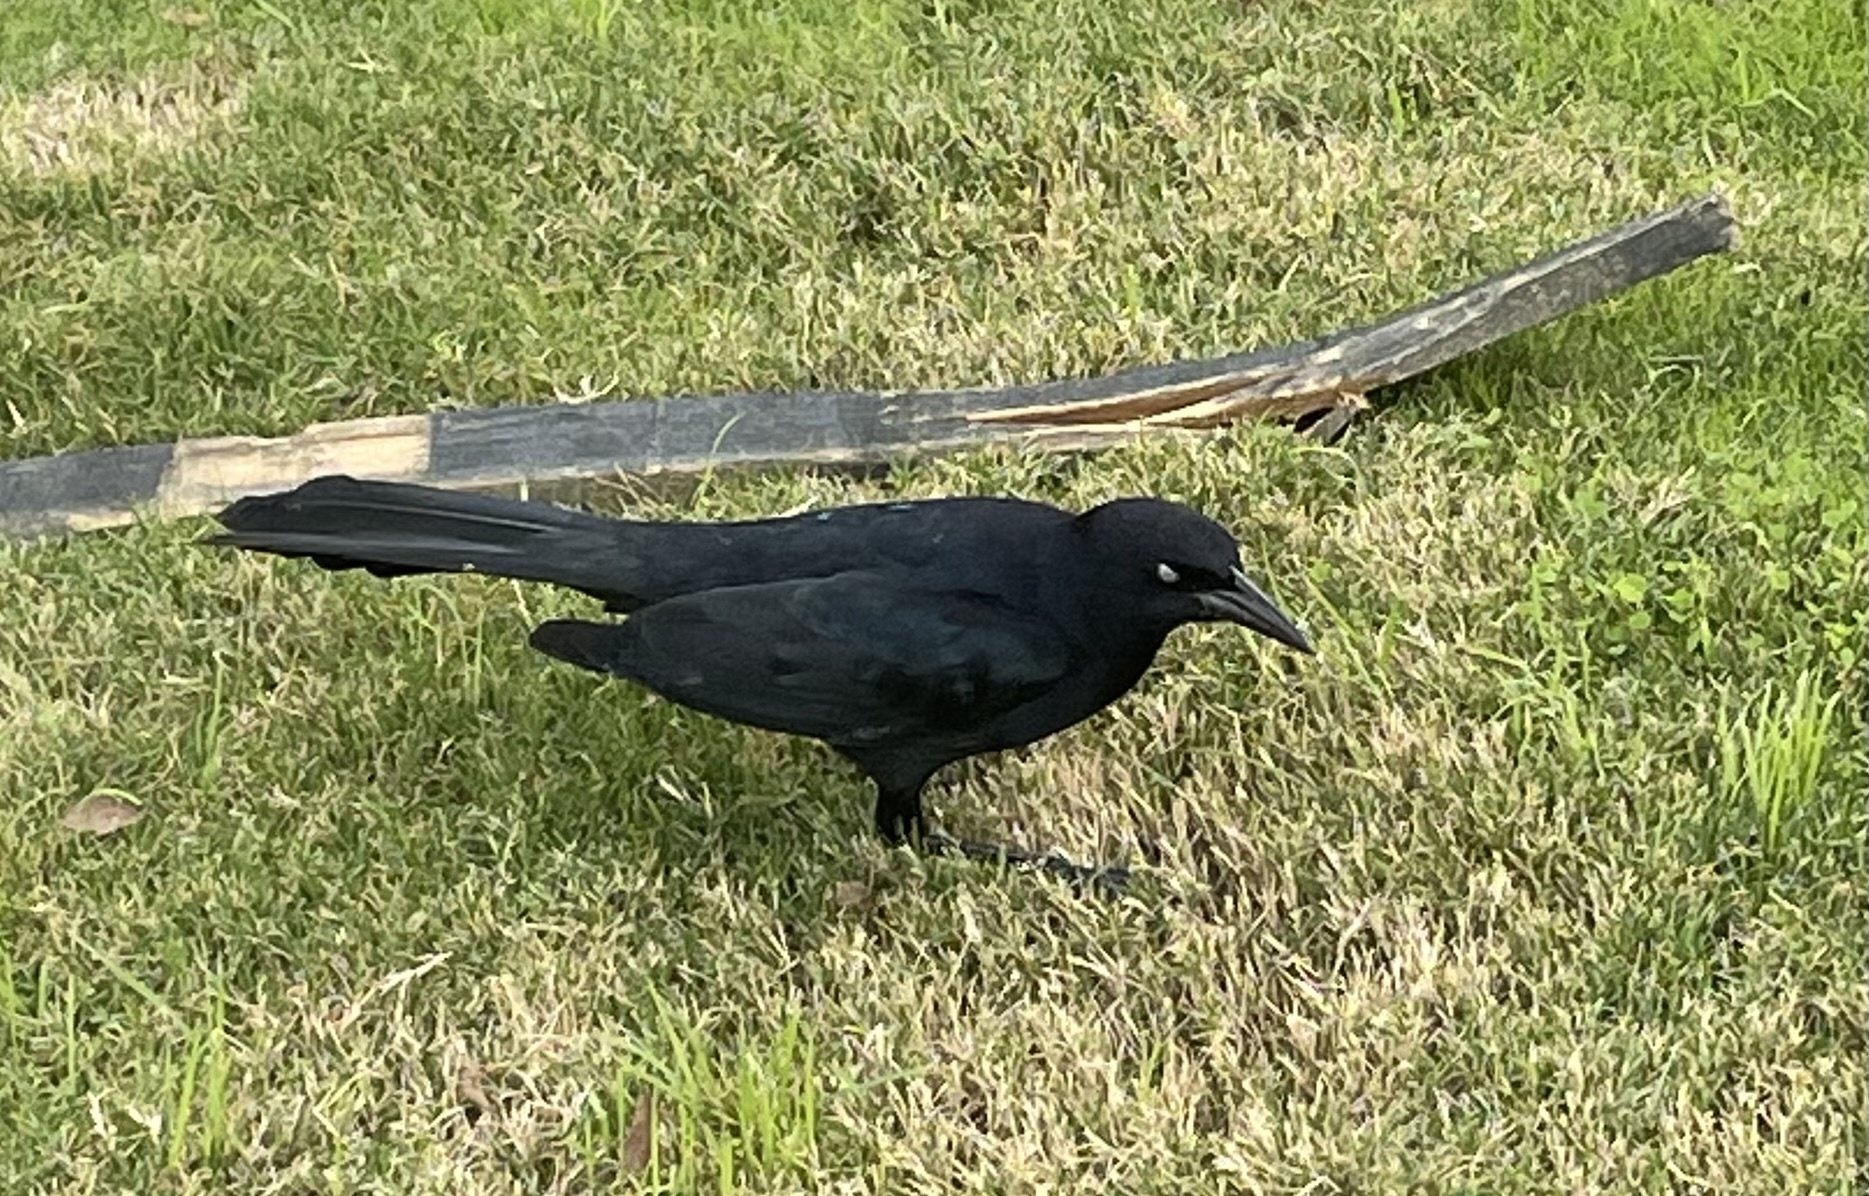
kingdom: Animalia
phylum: Chordata
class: Aves
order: Passeriformes
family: Icteridae
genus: Quiscalus
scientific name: Quiscalus mexicanus
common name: Great-tailed grackle
